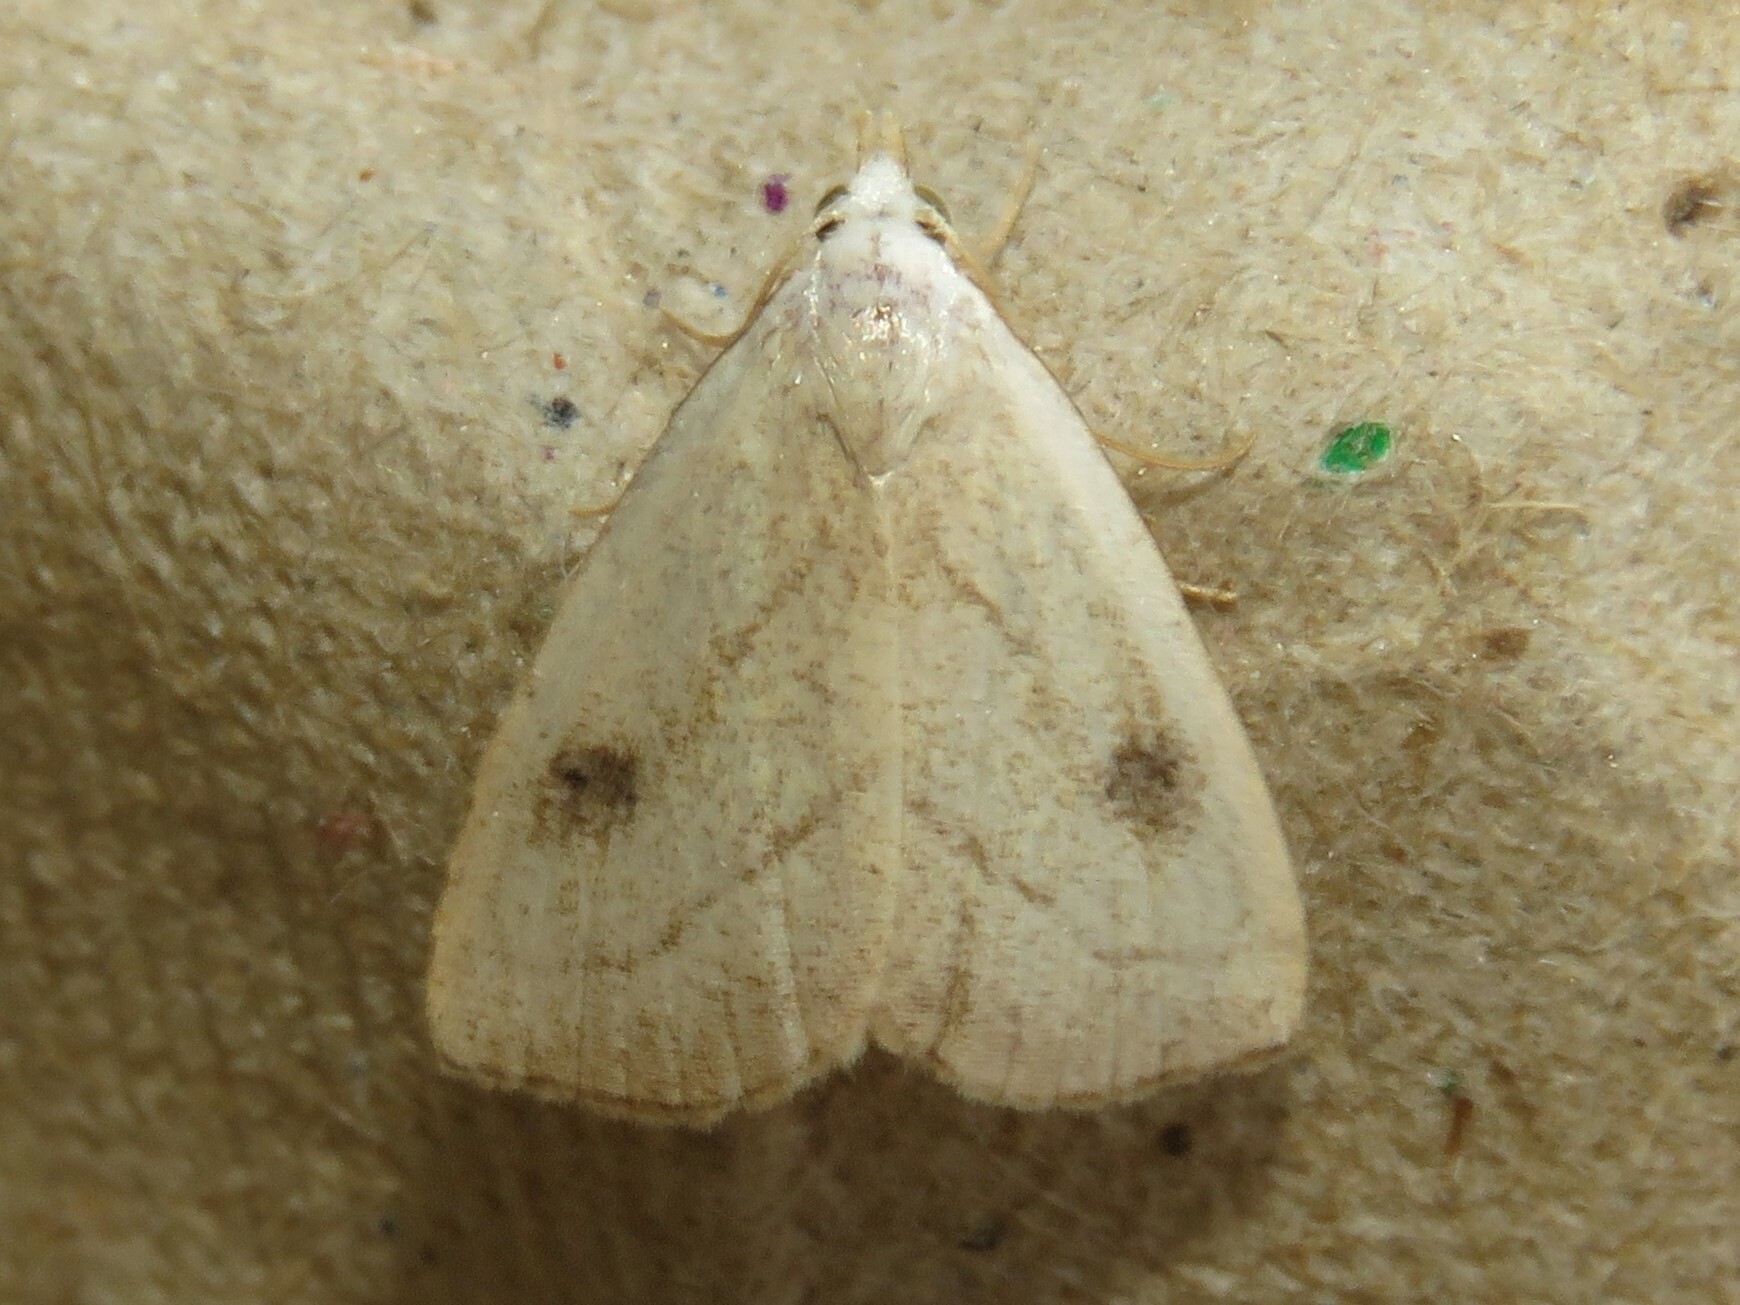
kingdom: Animalia
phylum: Arthropoda
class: Insecta
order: Lepidoptera
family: Erebidae
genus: Rivula
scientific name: Rivula propinqualis
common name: Spotted grass moth
